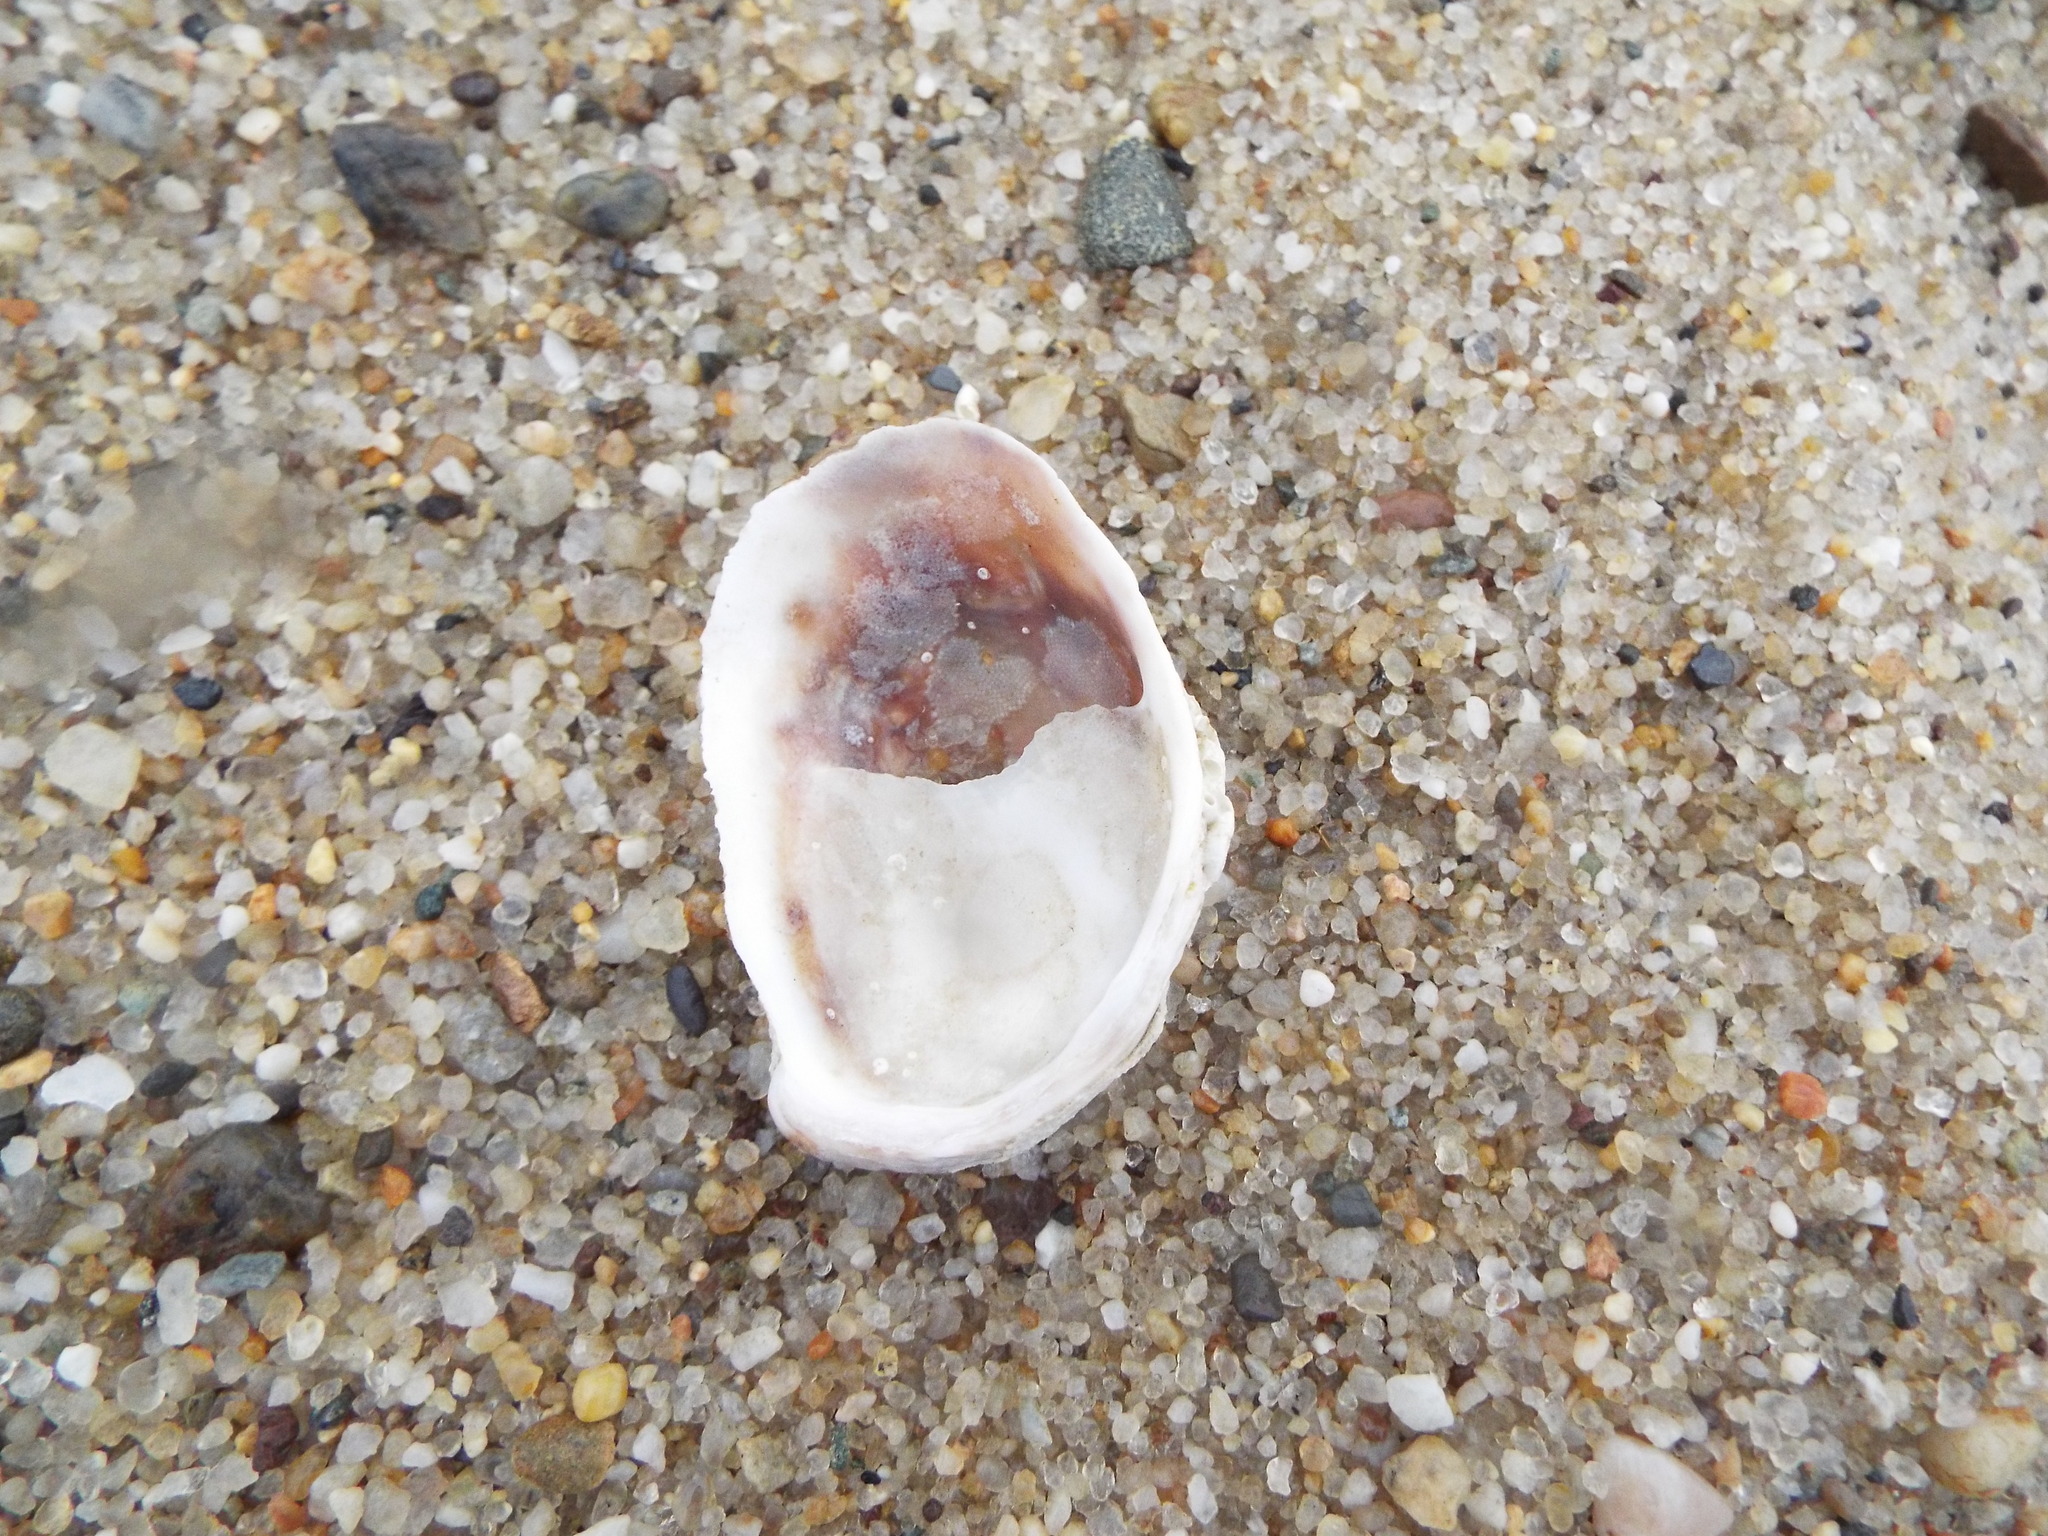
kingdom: Animalia
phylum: Mollusca
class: Gastropoda
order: Littorinimorpha
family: Calyptraeidae
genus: Crepidula
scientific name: Crepidula fornicata
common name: Slipper limpet
